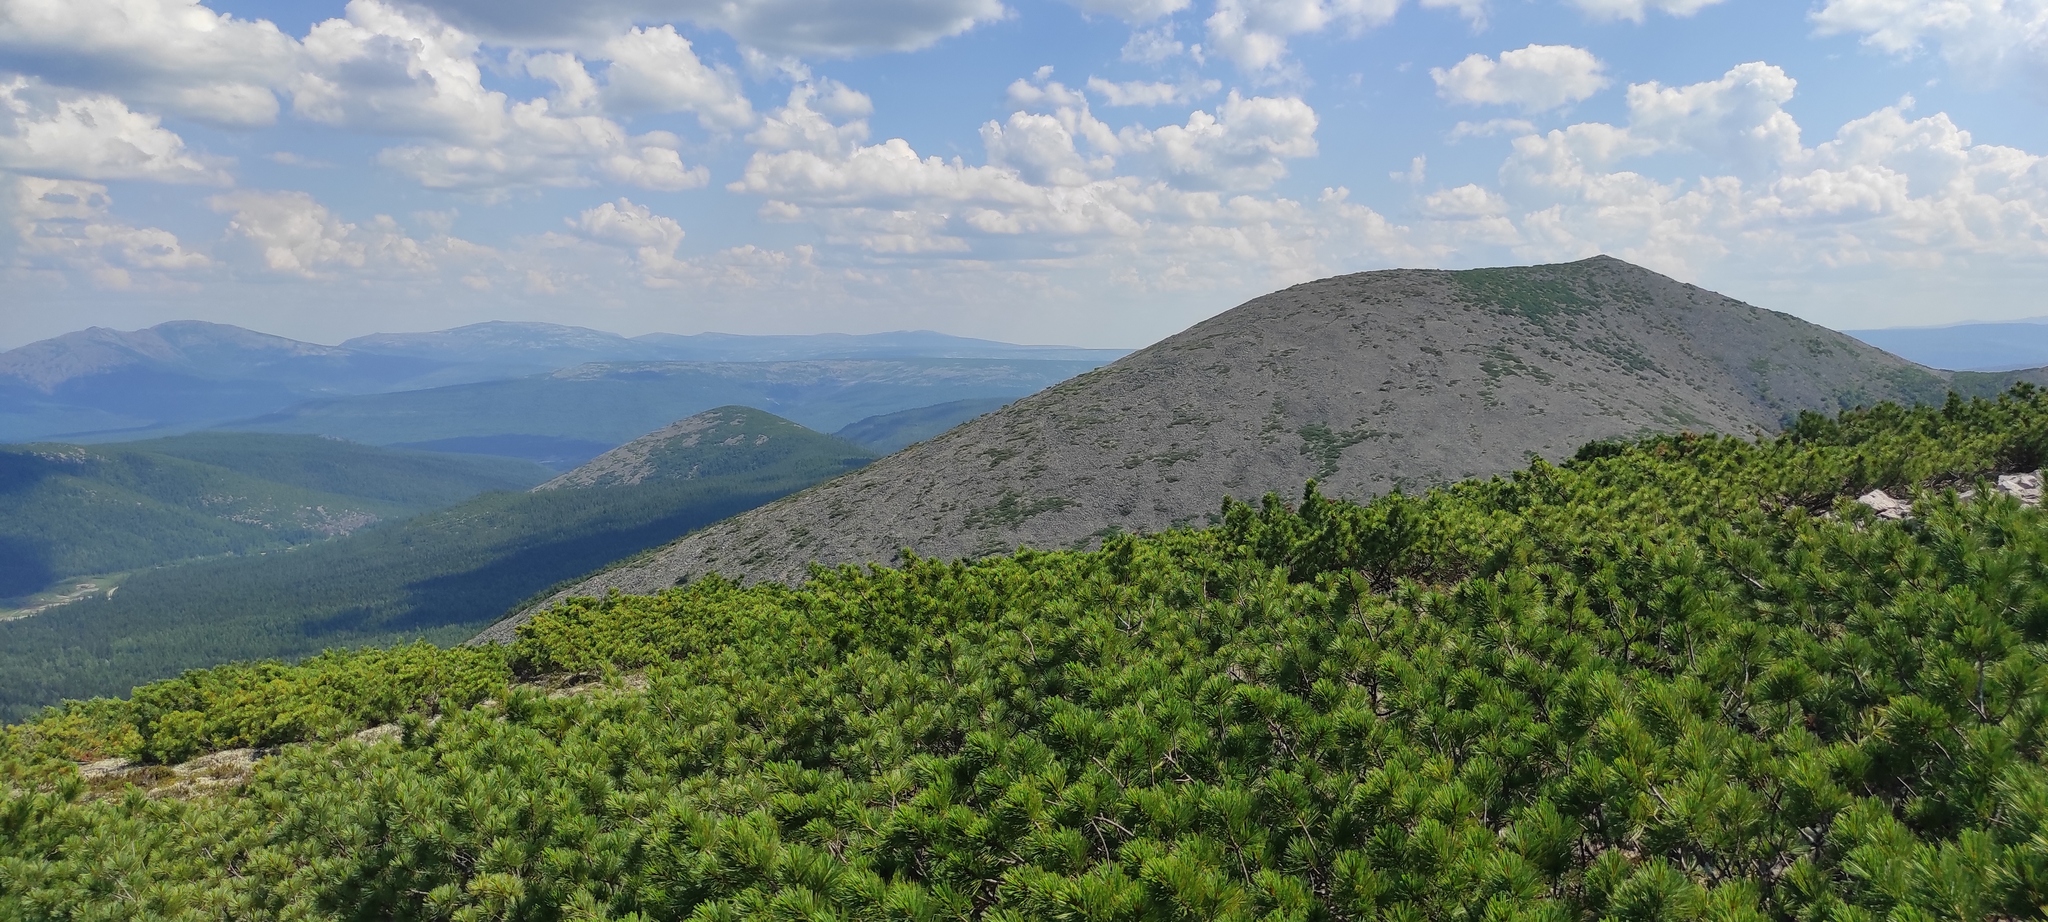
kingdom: Plantae
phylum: Tracheophyta
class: Pinopsida
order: Pinales
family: Pinaceae
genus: Pinus
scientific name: Pinus pumila
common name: Dwarf siberian pine
